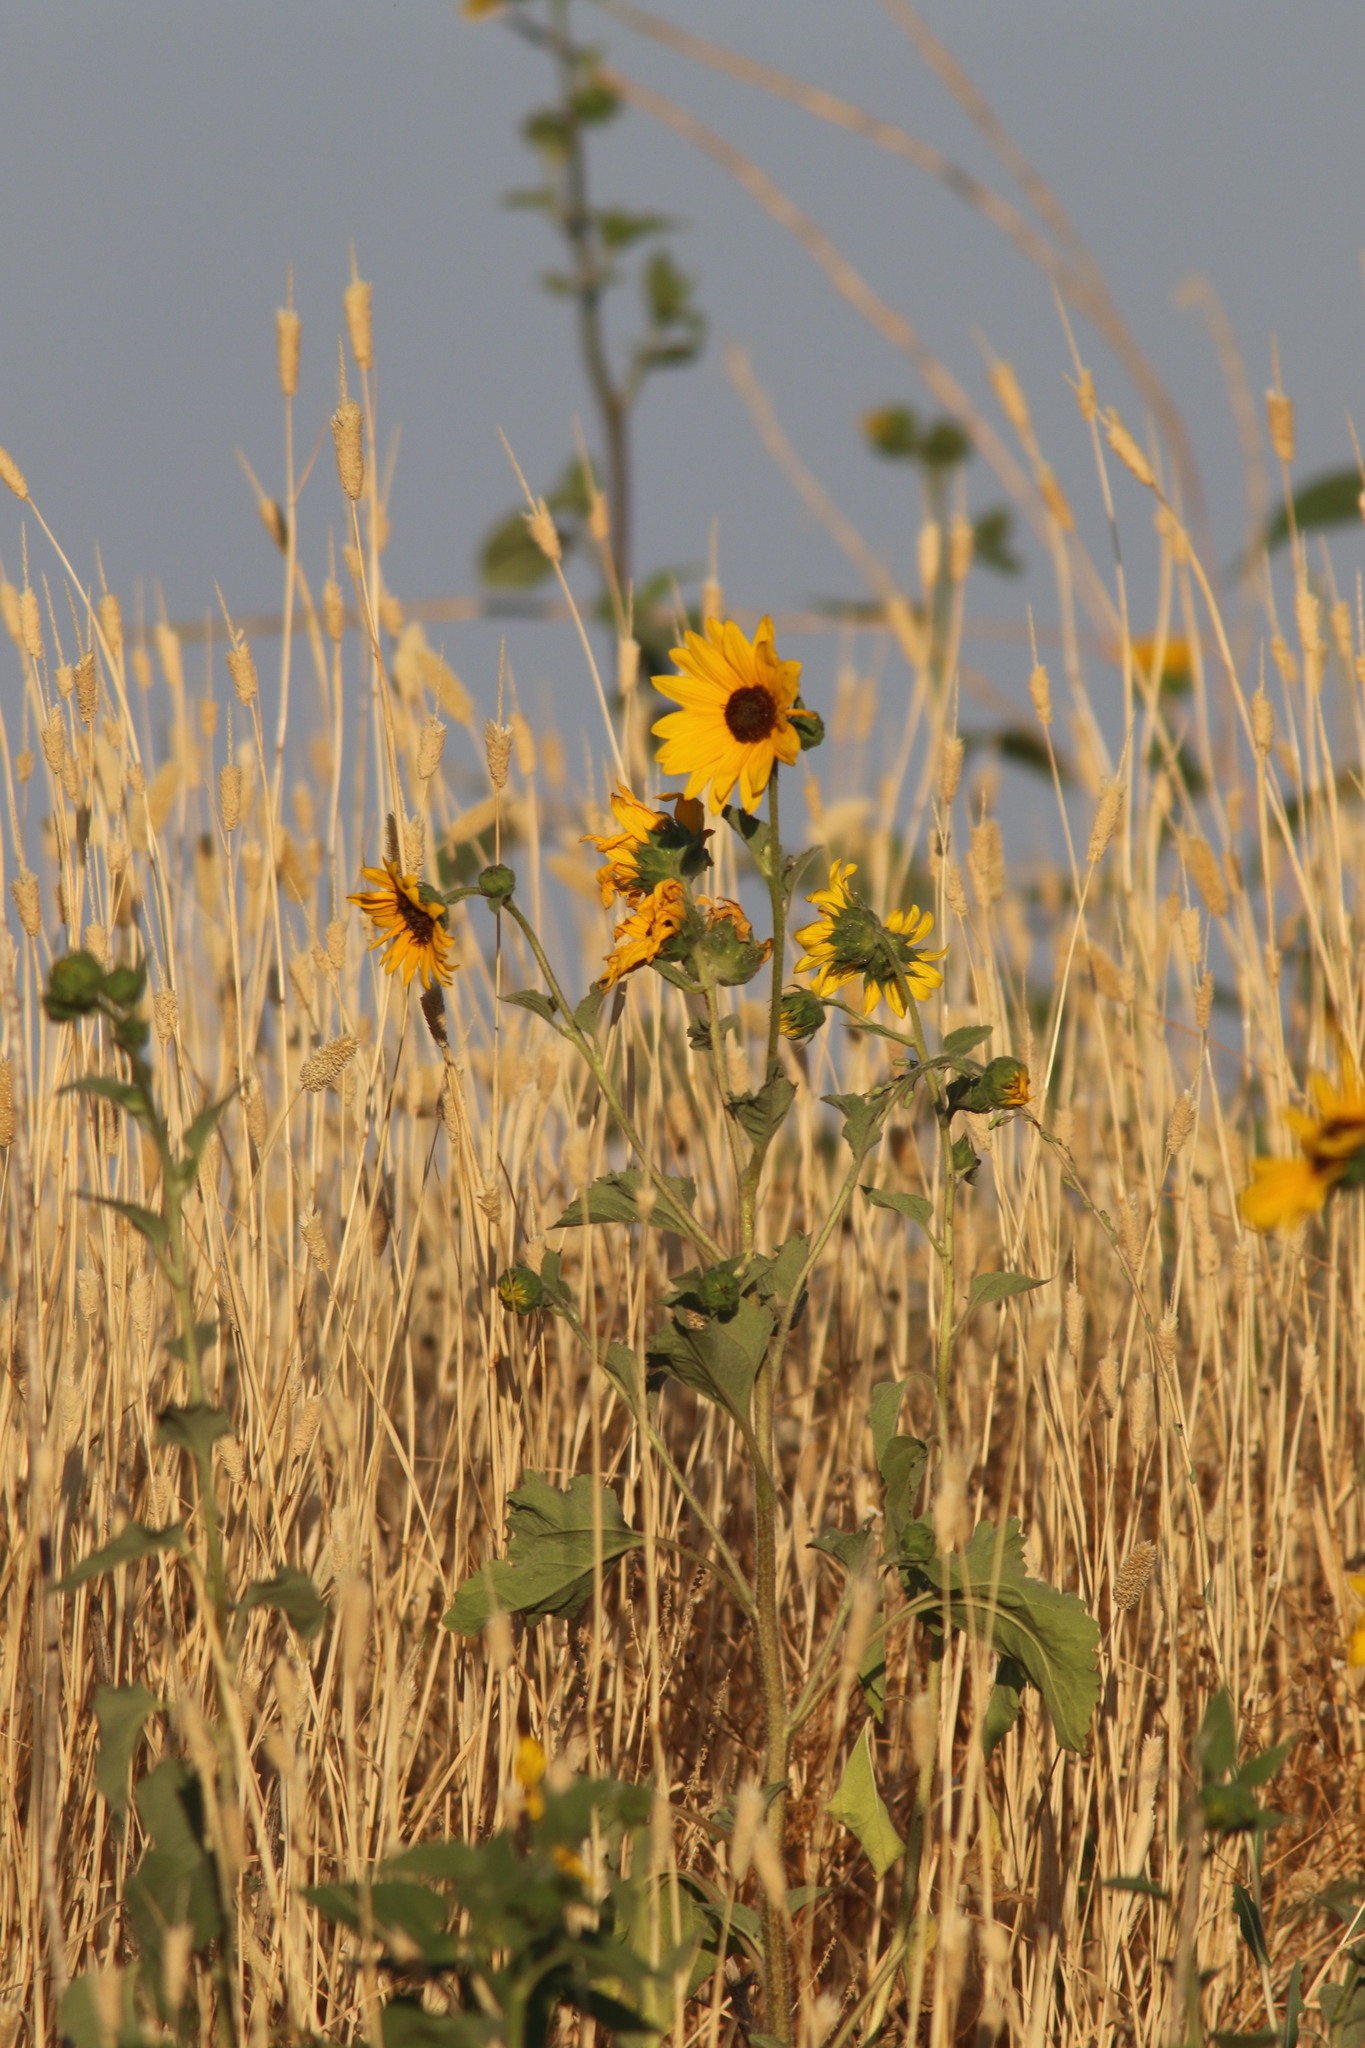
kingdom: Plantae
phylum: Tracheophyta
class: Magnoliopsida
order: Asterales
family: Asteraceae
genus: Helianthus
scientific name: Helianthus annuus
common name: Sunflower
